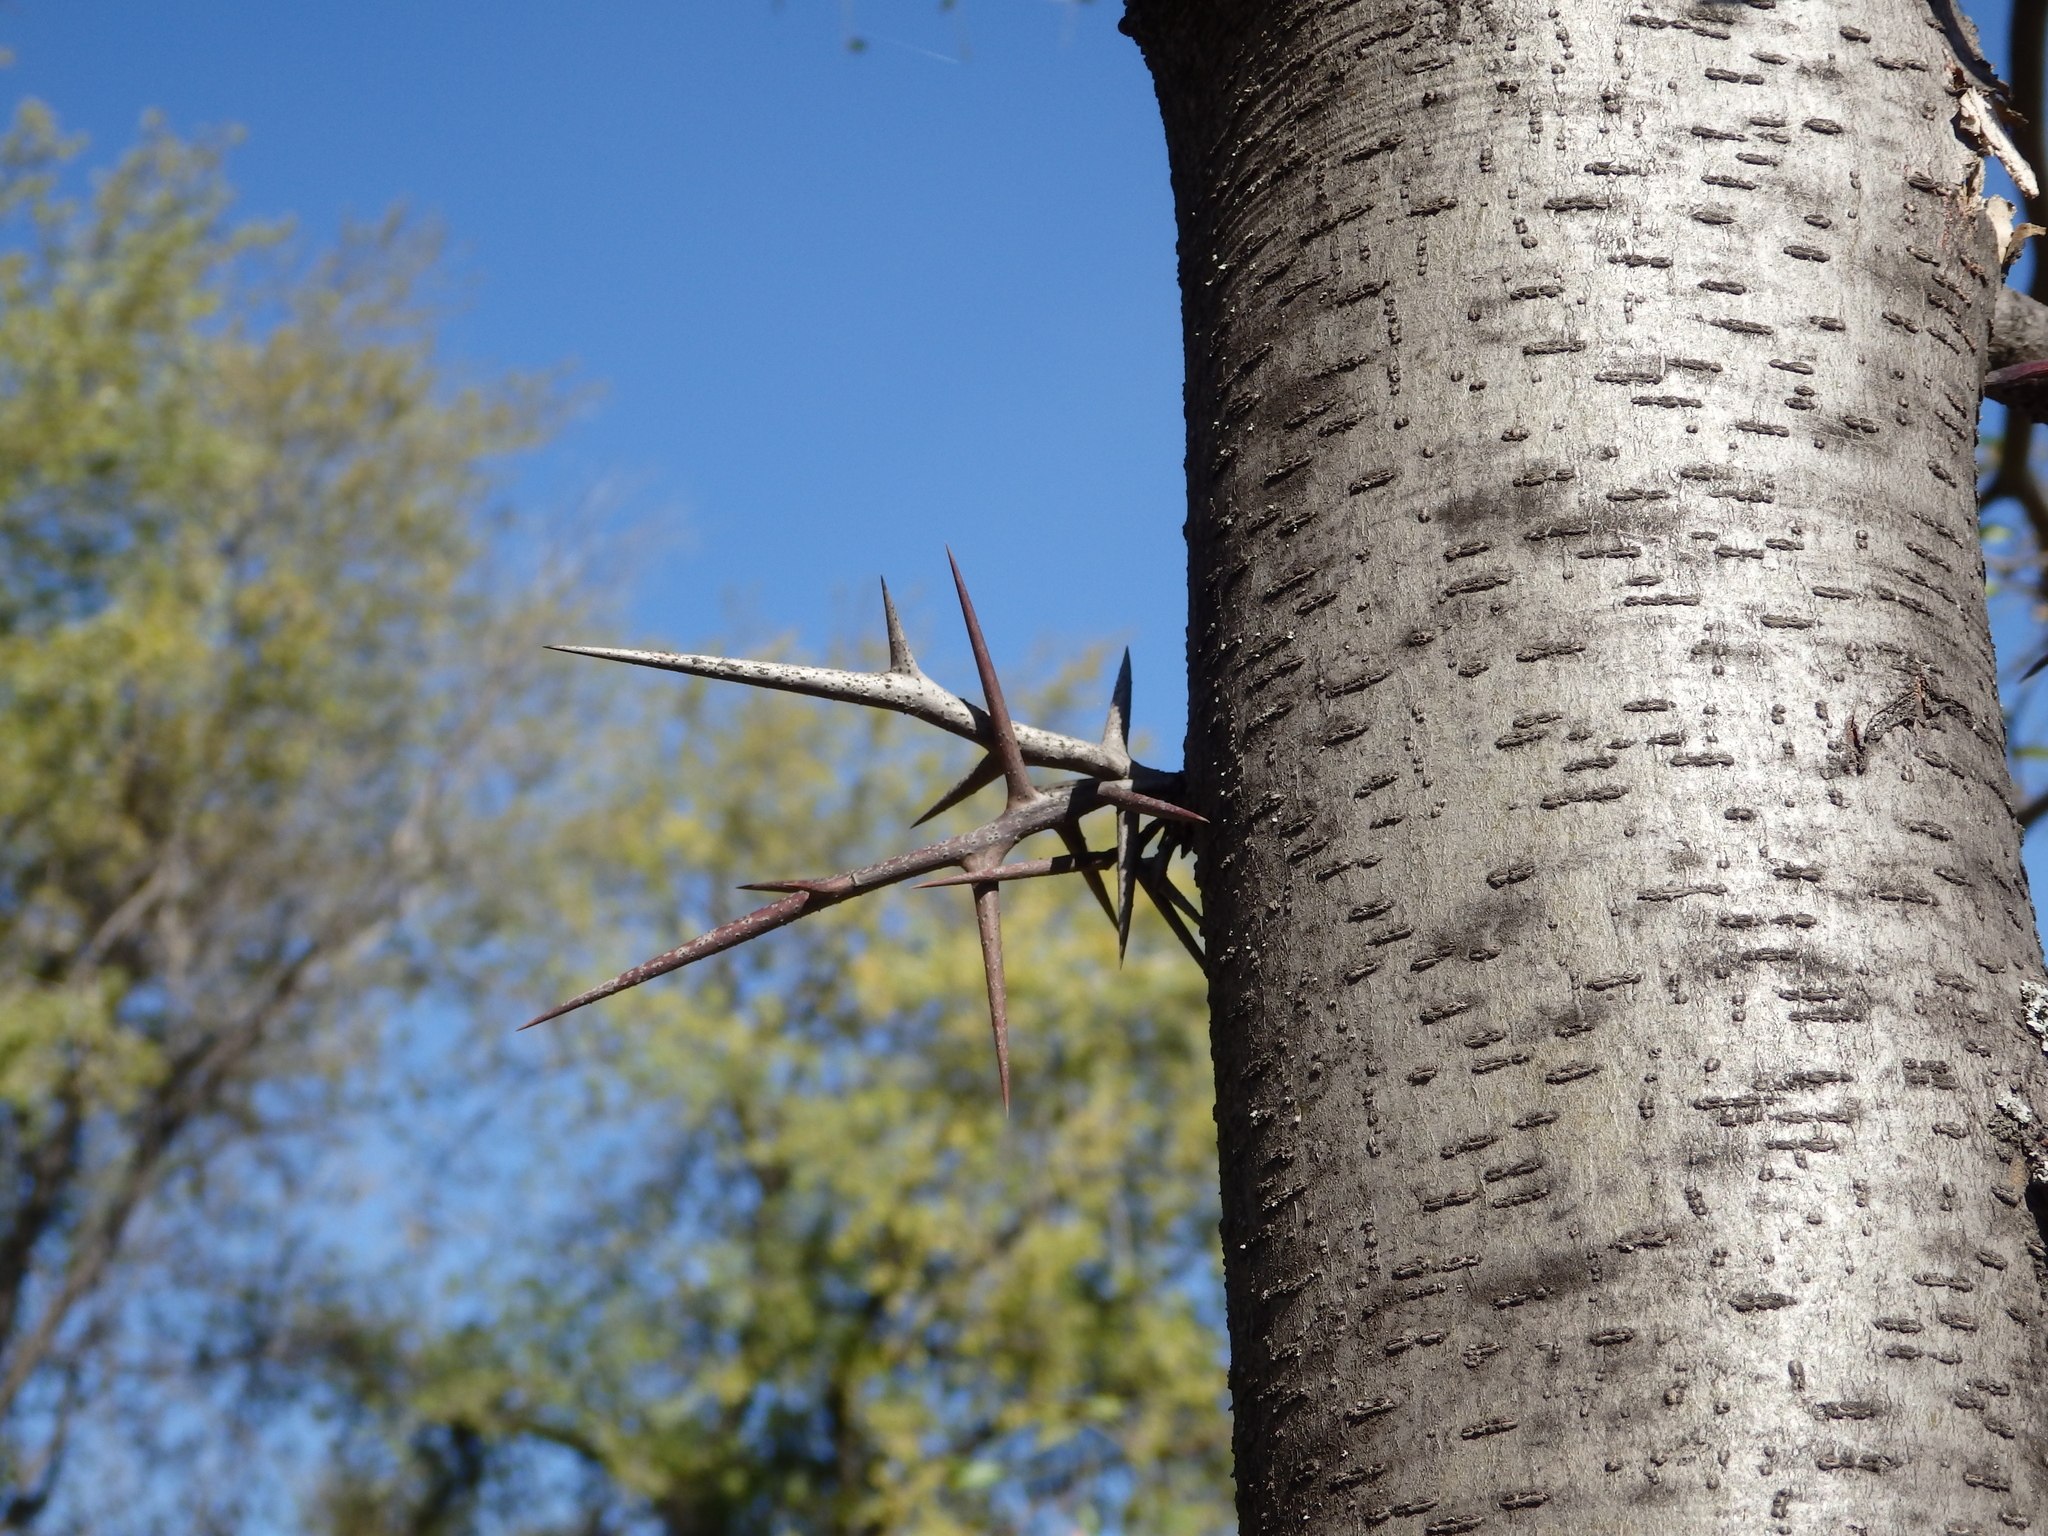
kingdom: Plantae
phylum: Tracheophyta
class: Magnoliopsida
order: Fabales
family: Fabaceae
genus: Gleditsia
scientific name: Gleditsia triacanthos
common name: Common honeylocust
